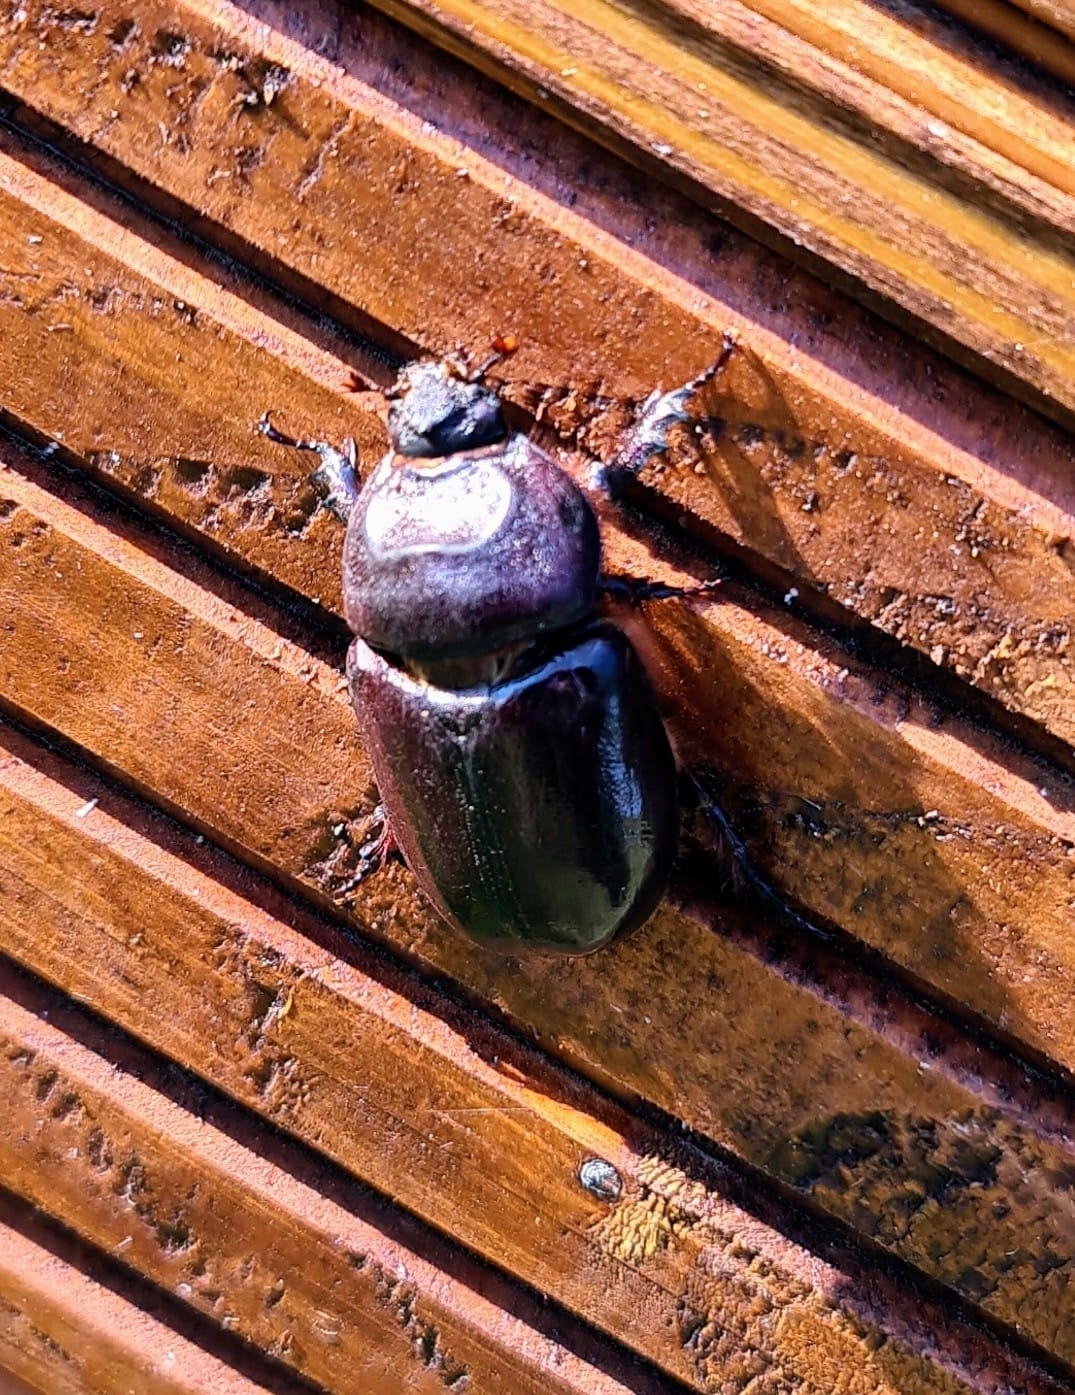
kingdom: Animalia
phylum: Arthropoda
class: Insecta
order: Coleoptera
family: Scarabaeidae
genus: Oryctes
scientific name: Oryctes nasicornis
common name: European rhinoceros beetle
